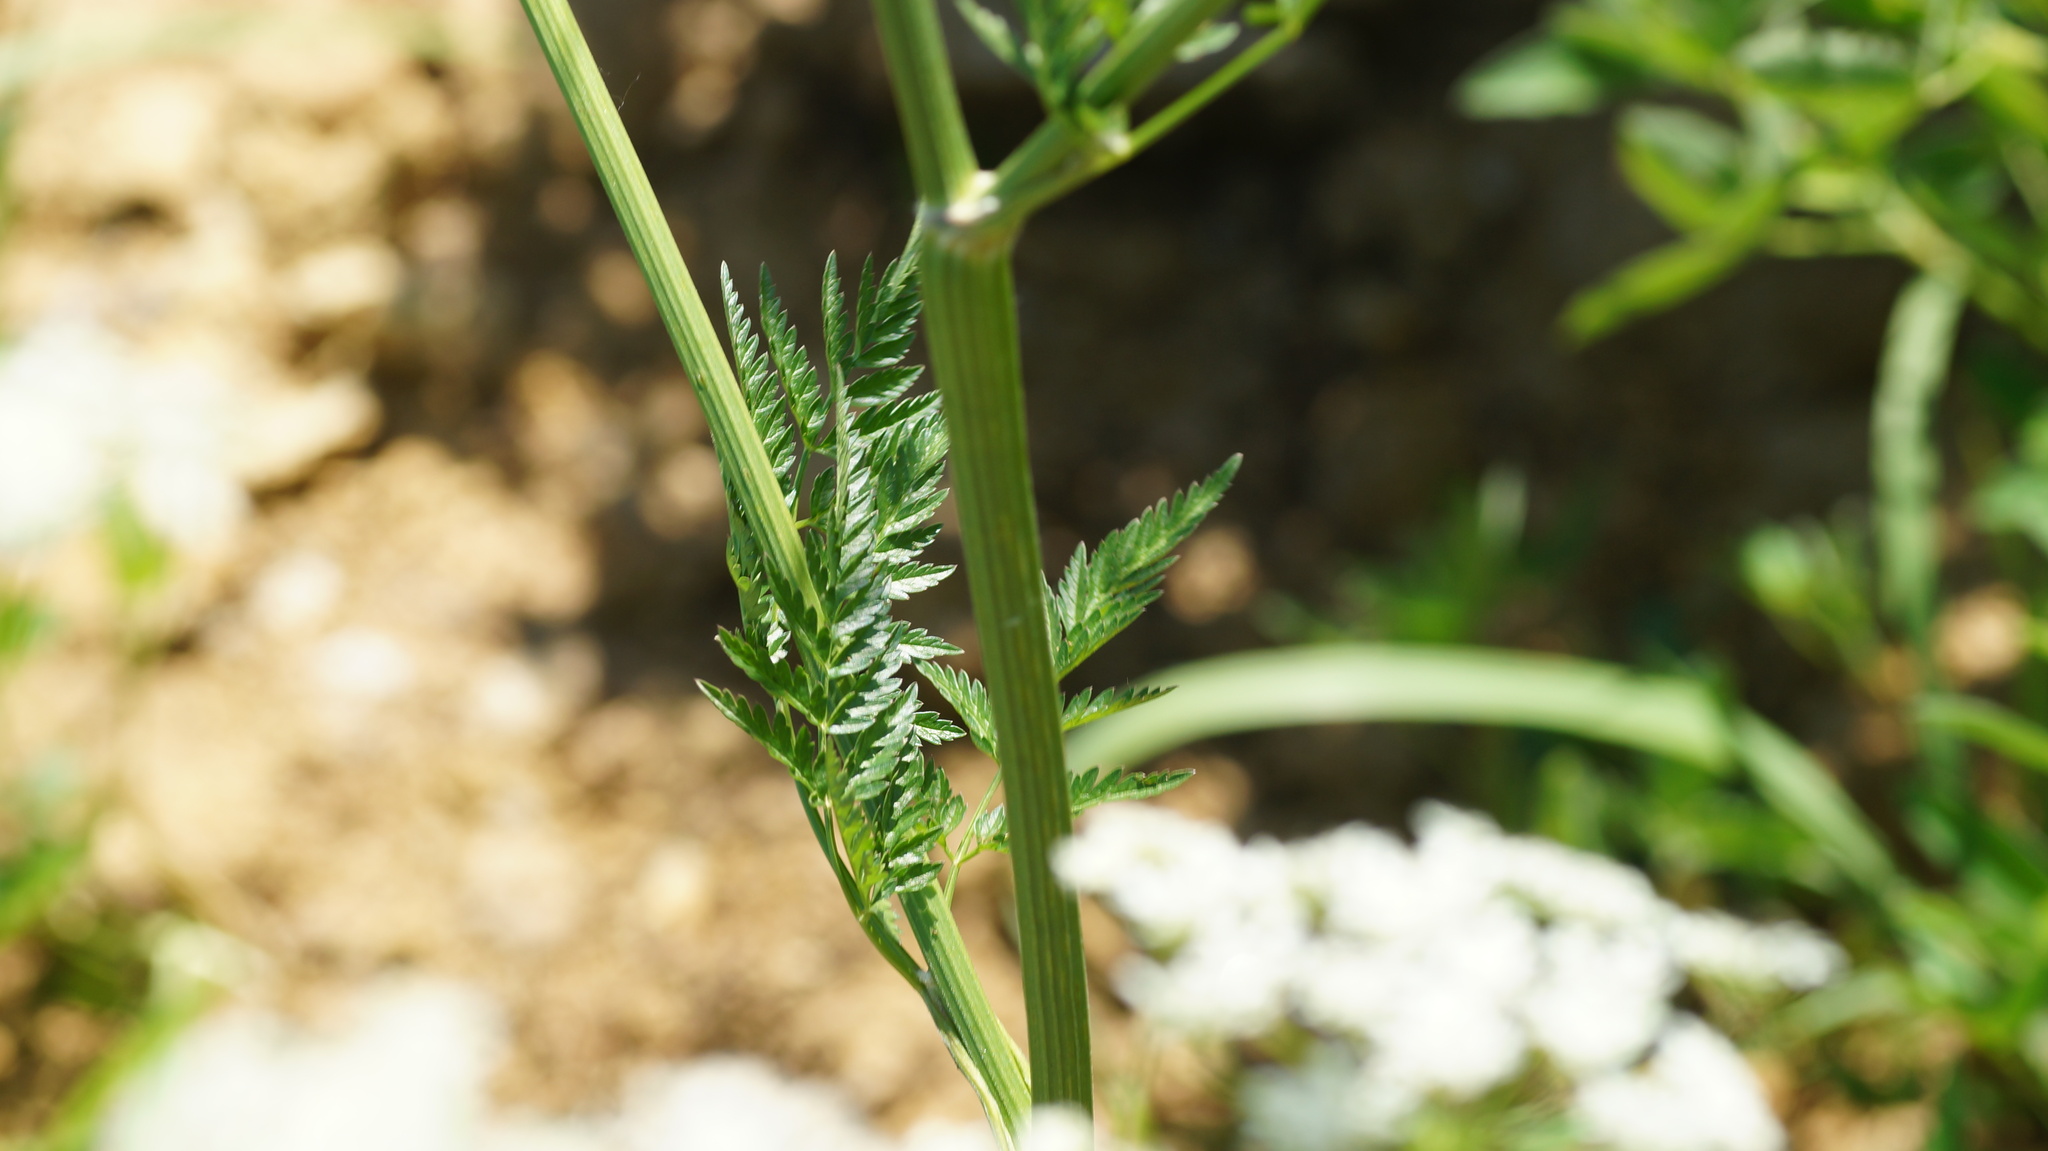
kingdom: Plantae
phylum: Tracheophyta
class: Magnoliopsida
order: Apiales
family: Apiaceae
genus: Anthriscus
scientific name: Anthriscus sylvestris
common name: Cow parsley
